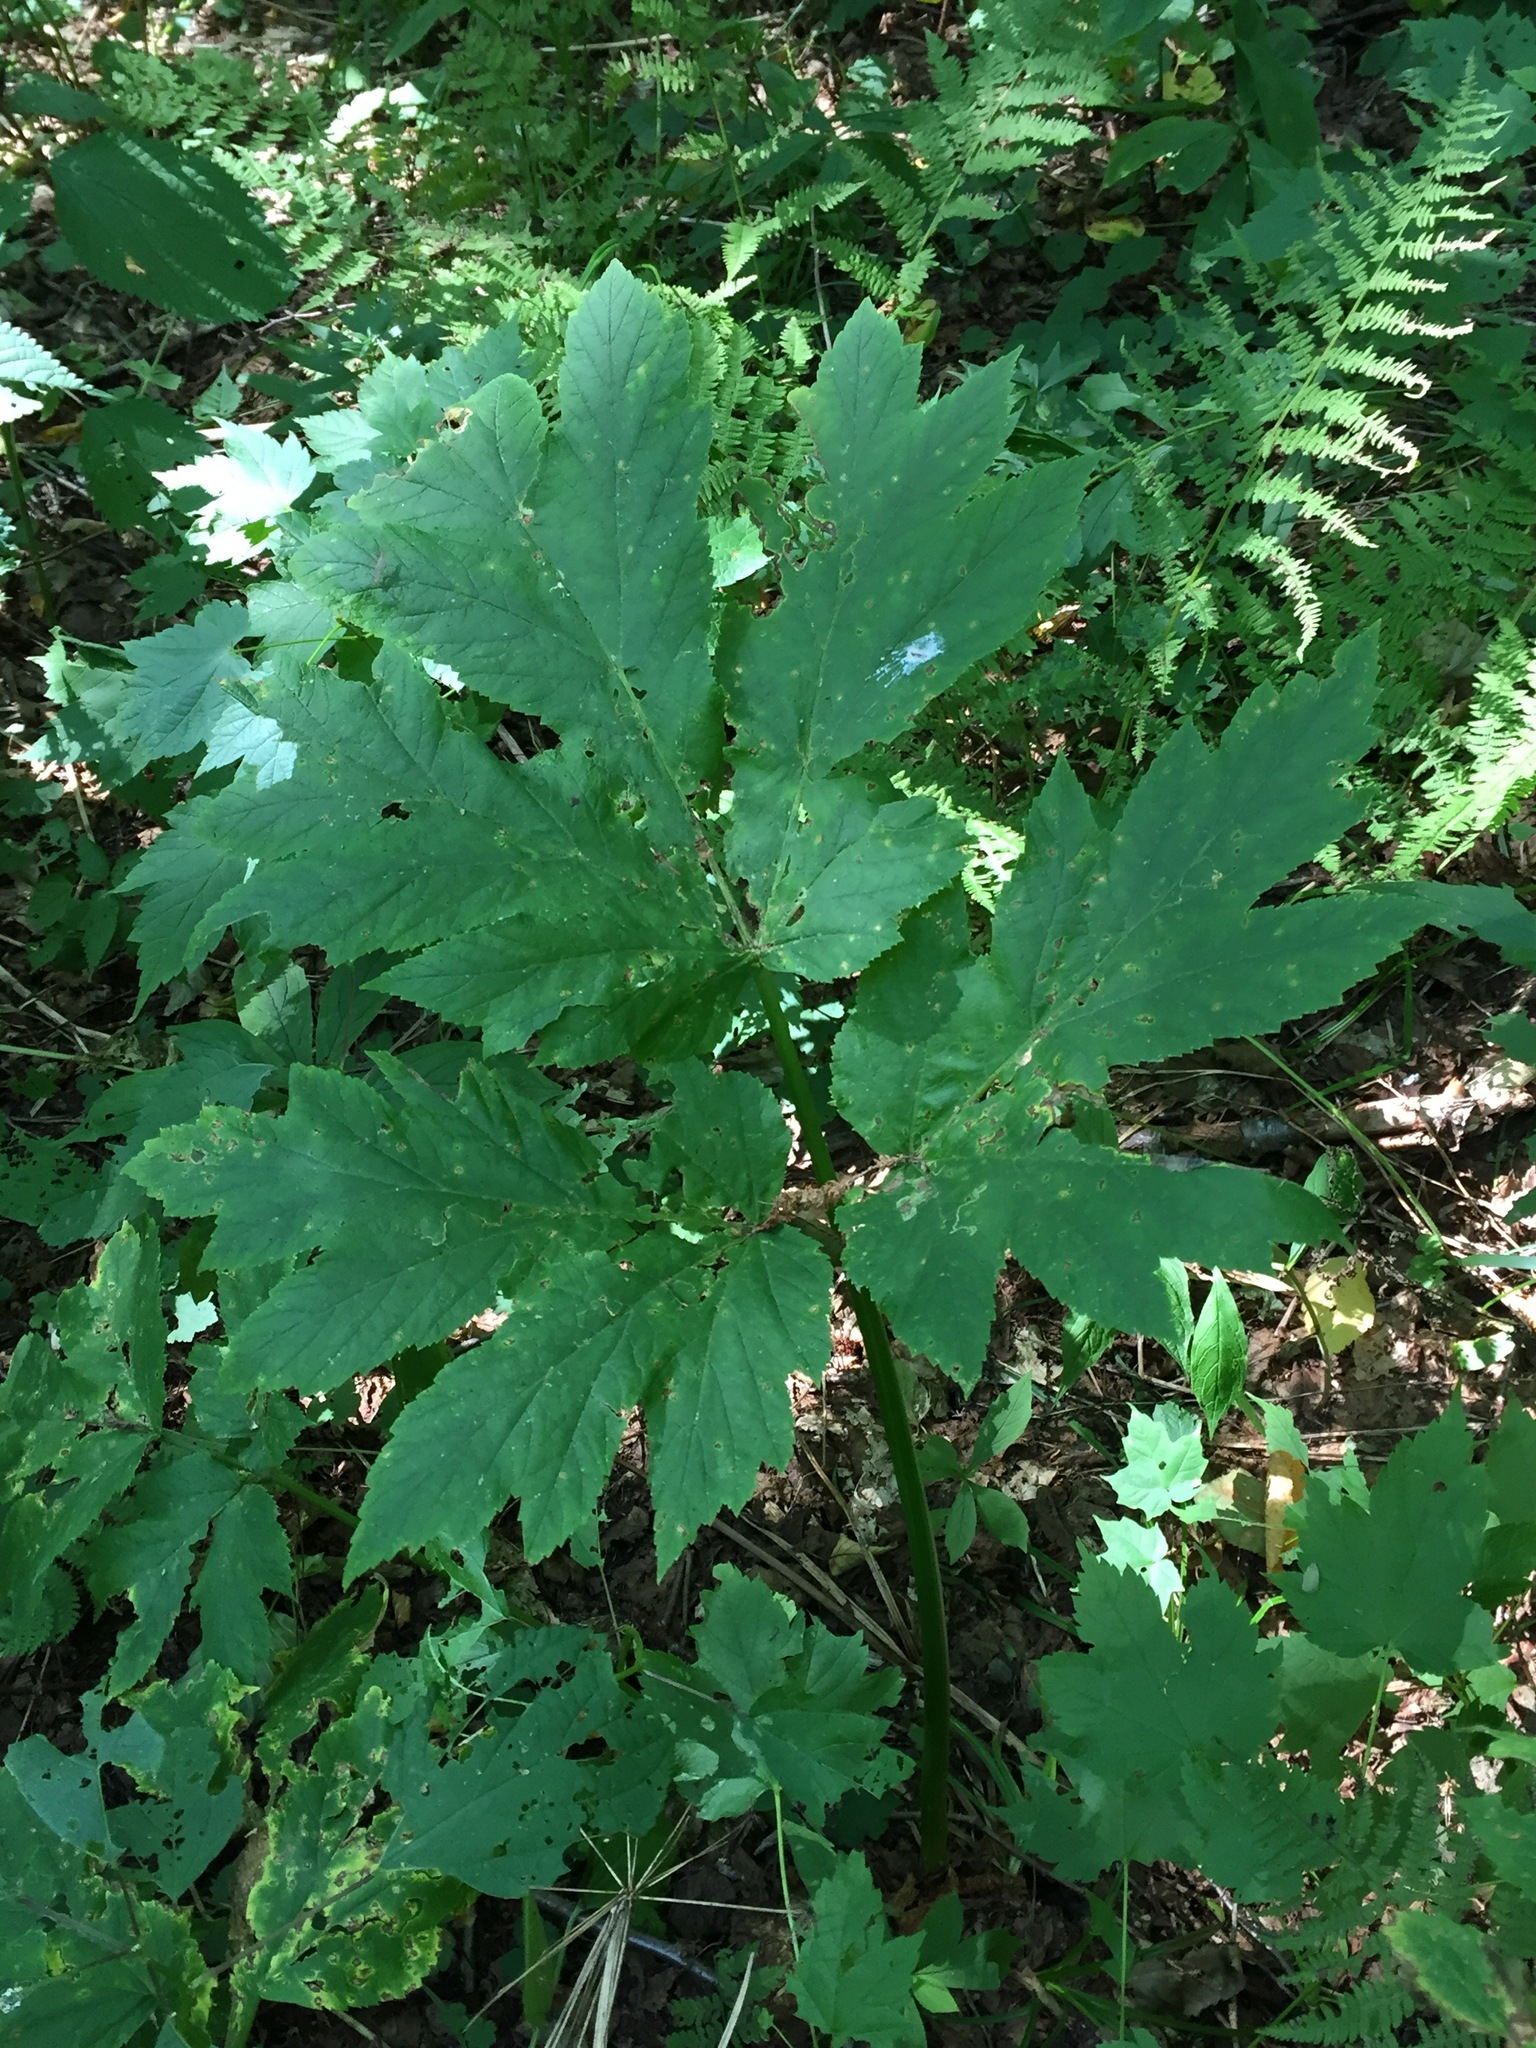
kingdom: Plantae
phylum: Tracheophyta
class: Magnoliopsida
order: Apiales
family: Apiaceae
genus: Heracleum
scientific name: Heracleum maximum
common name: American cow parsnip
